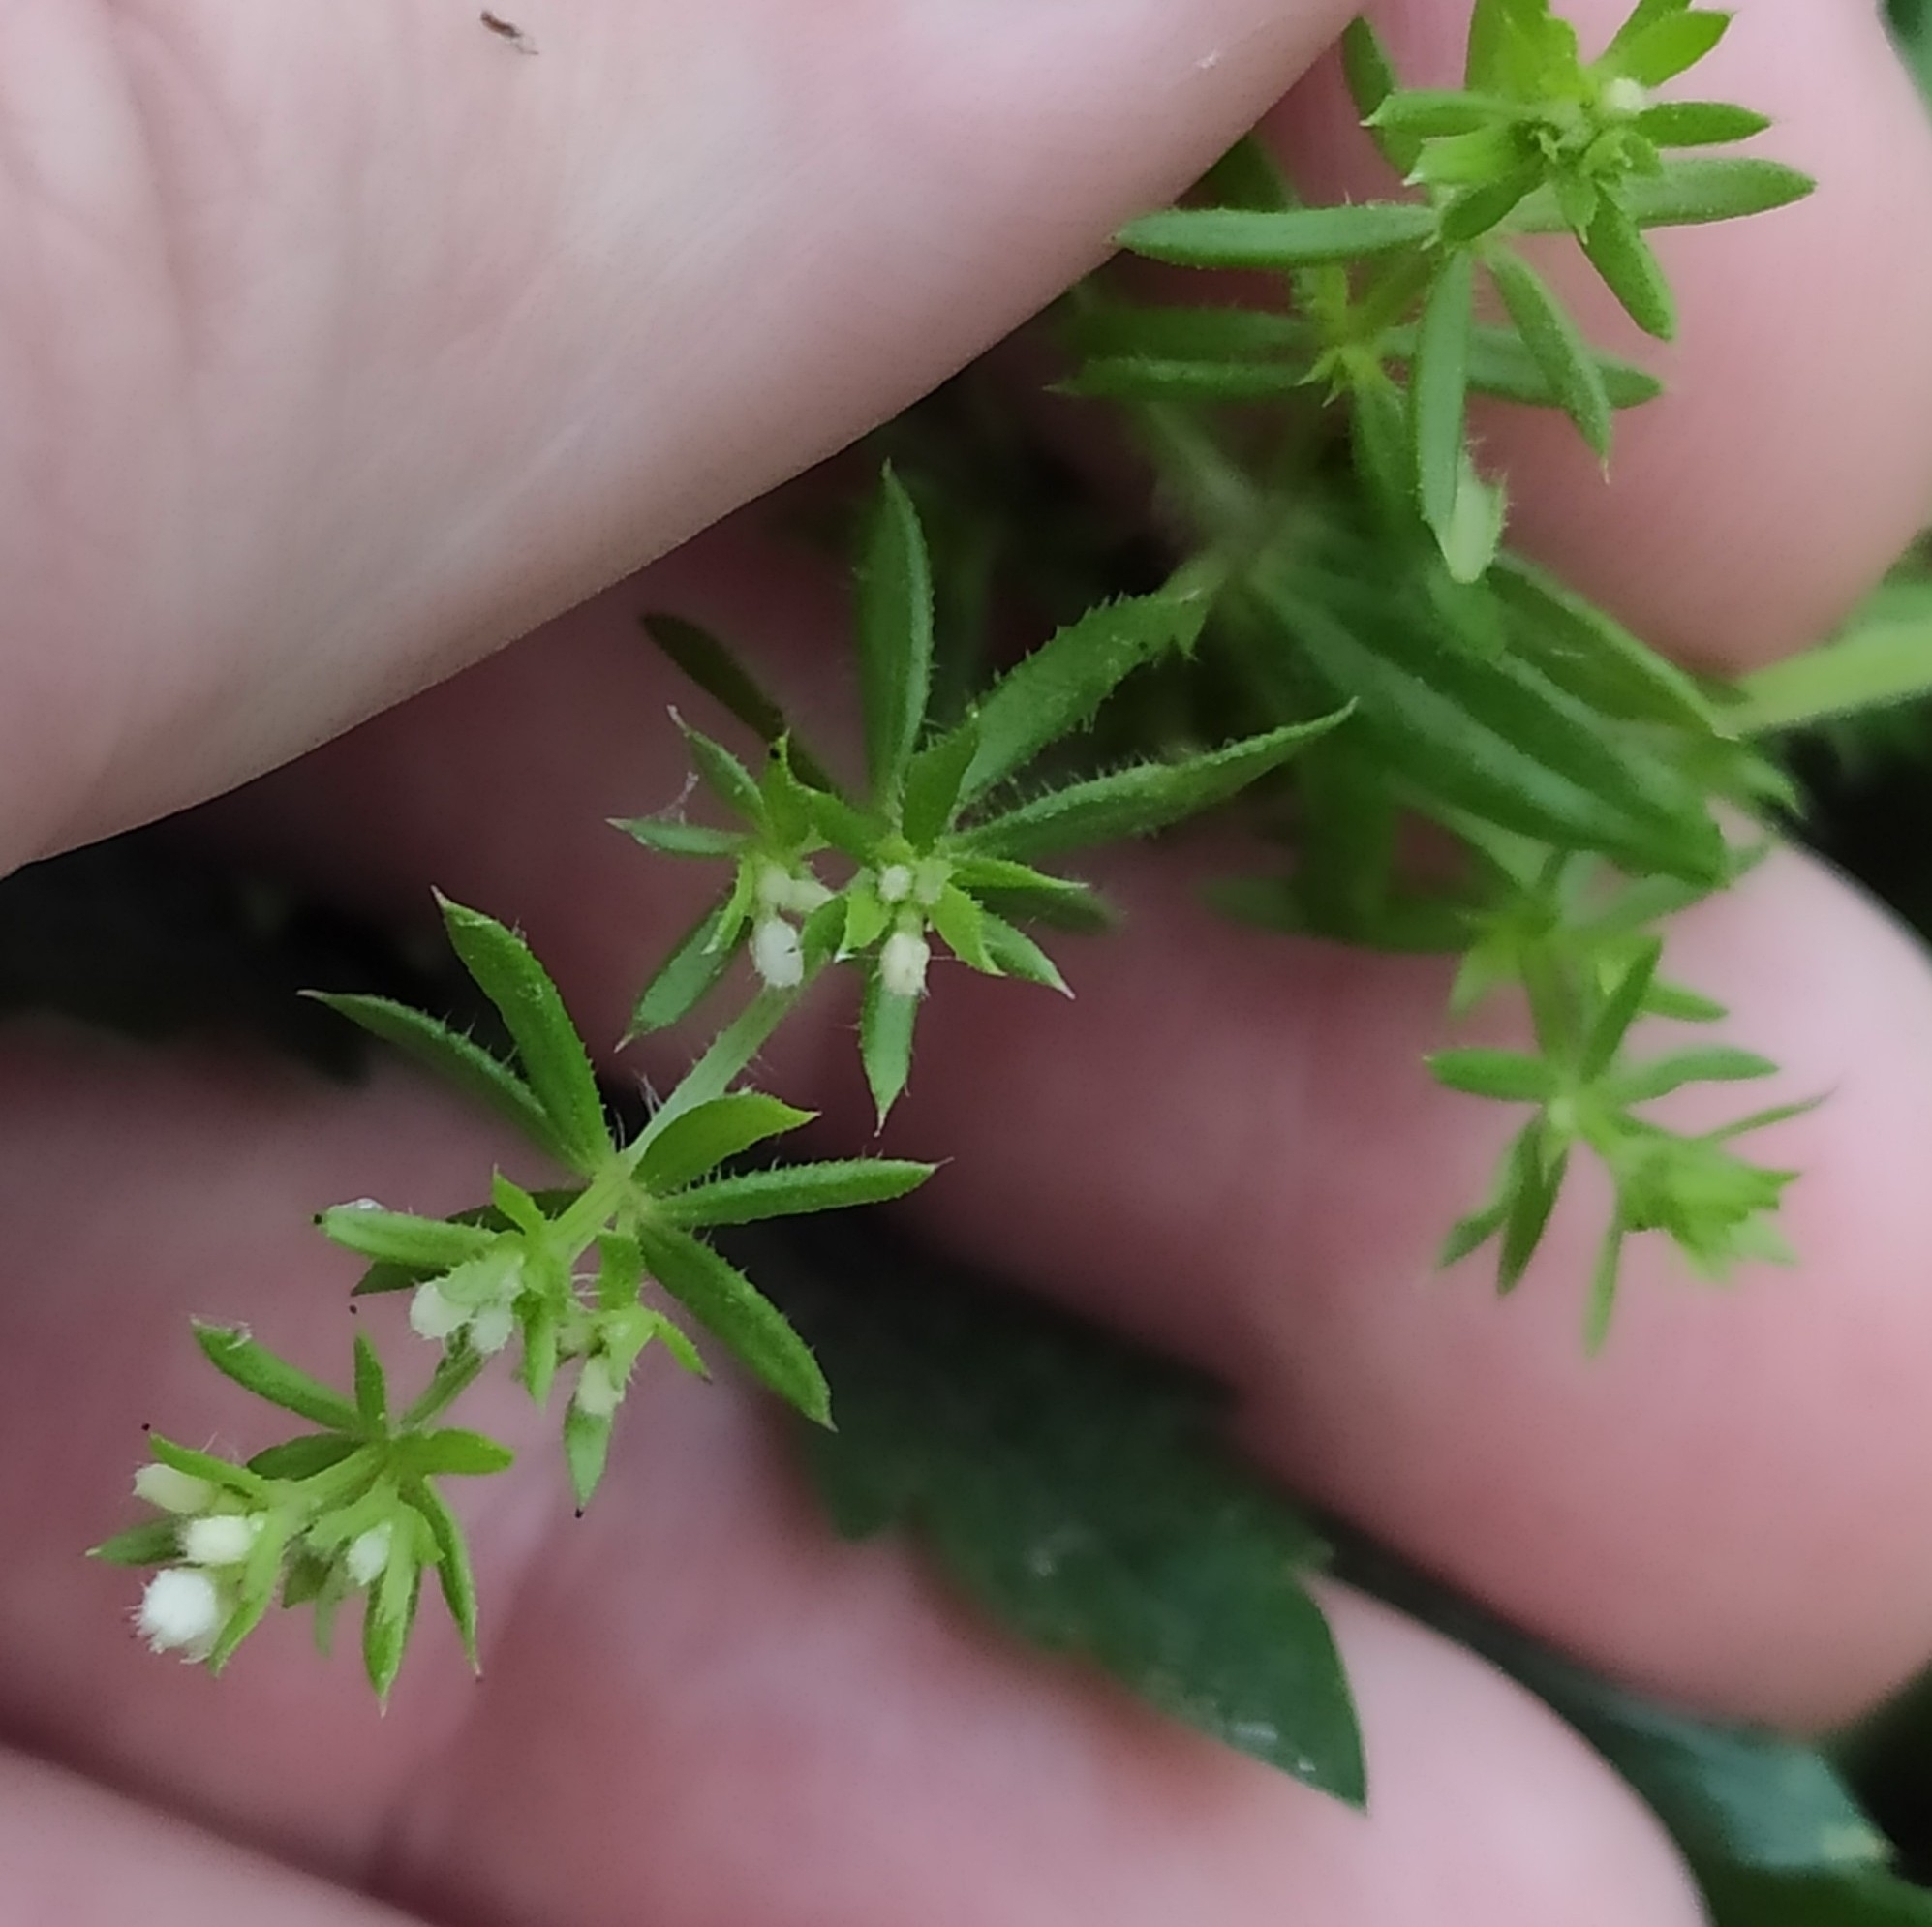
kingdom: Plantae
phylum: Tracheophyta
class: Magnoliopsida
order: Gentianales
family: Rubiaceae
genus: Galium
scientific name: Galium aparine
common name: Cleavers
